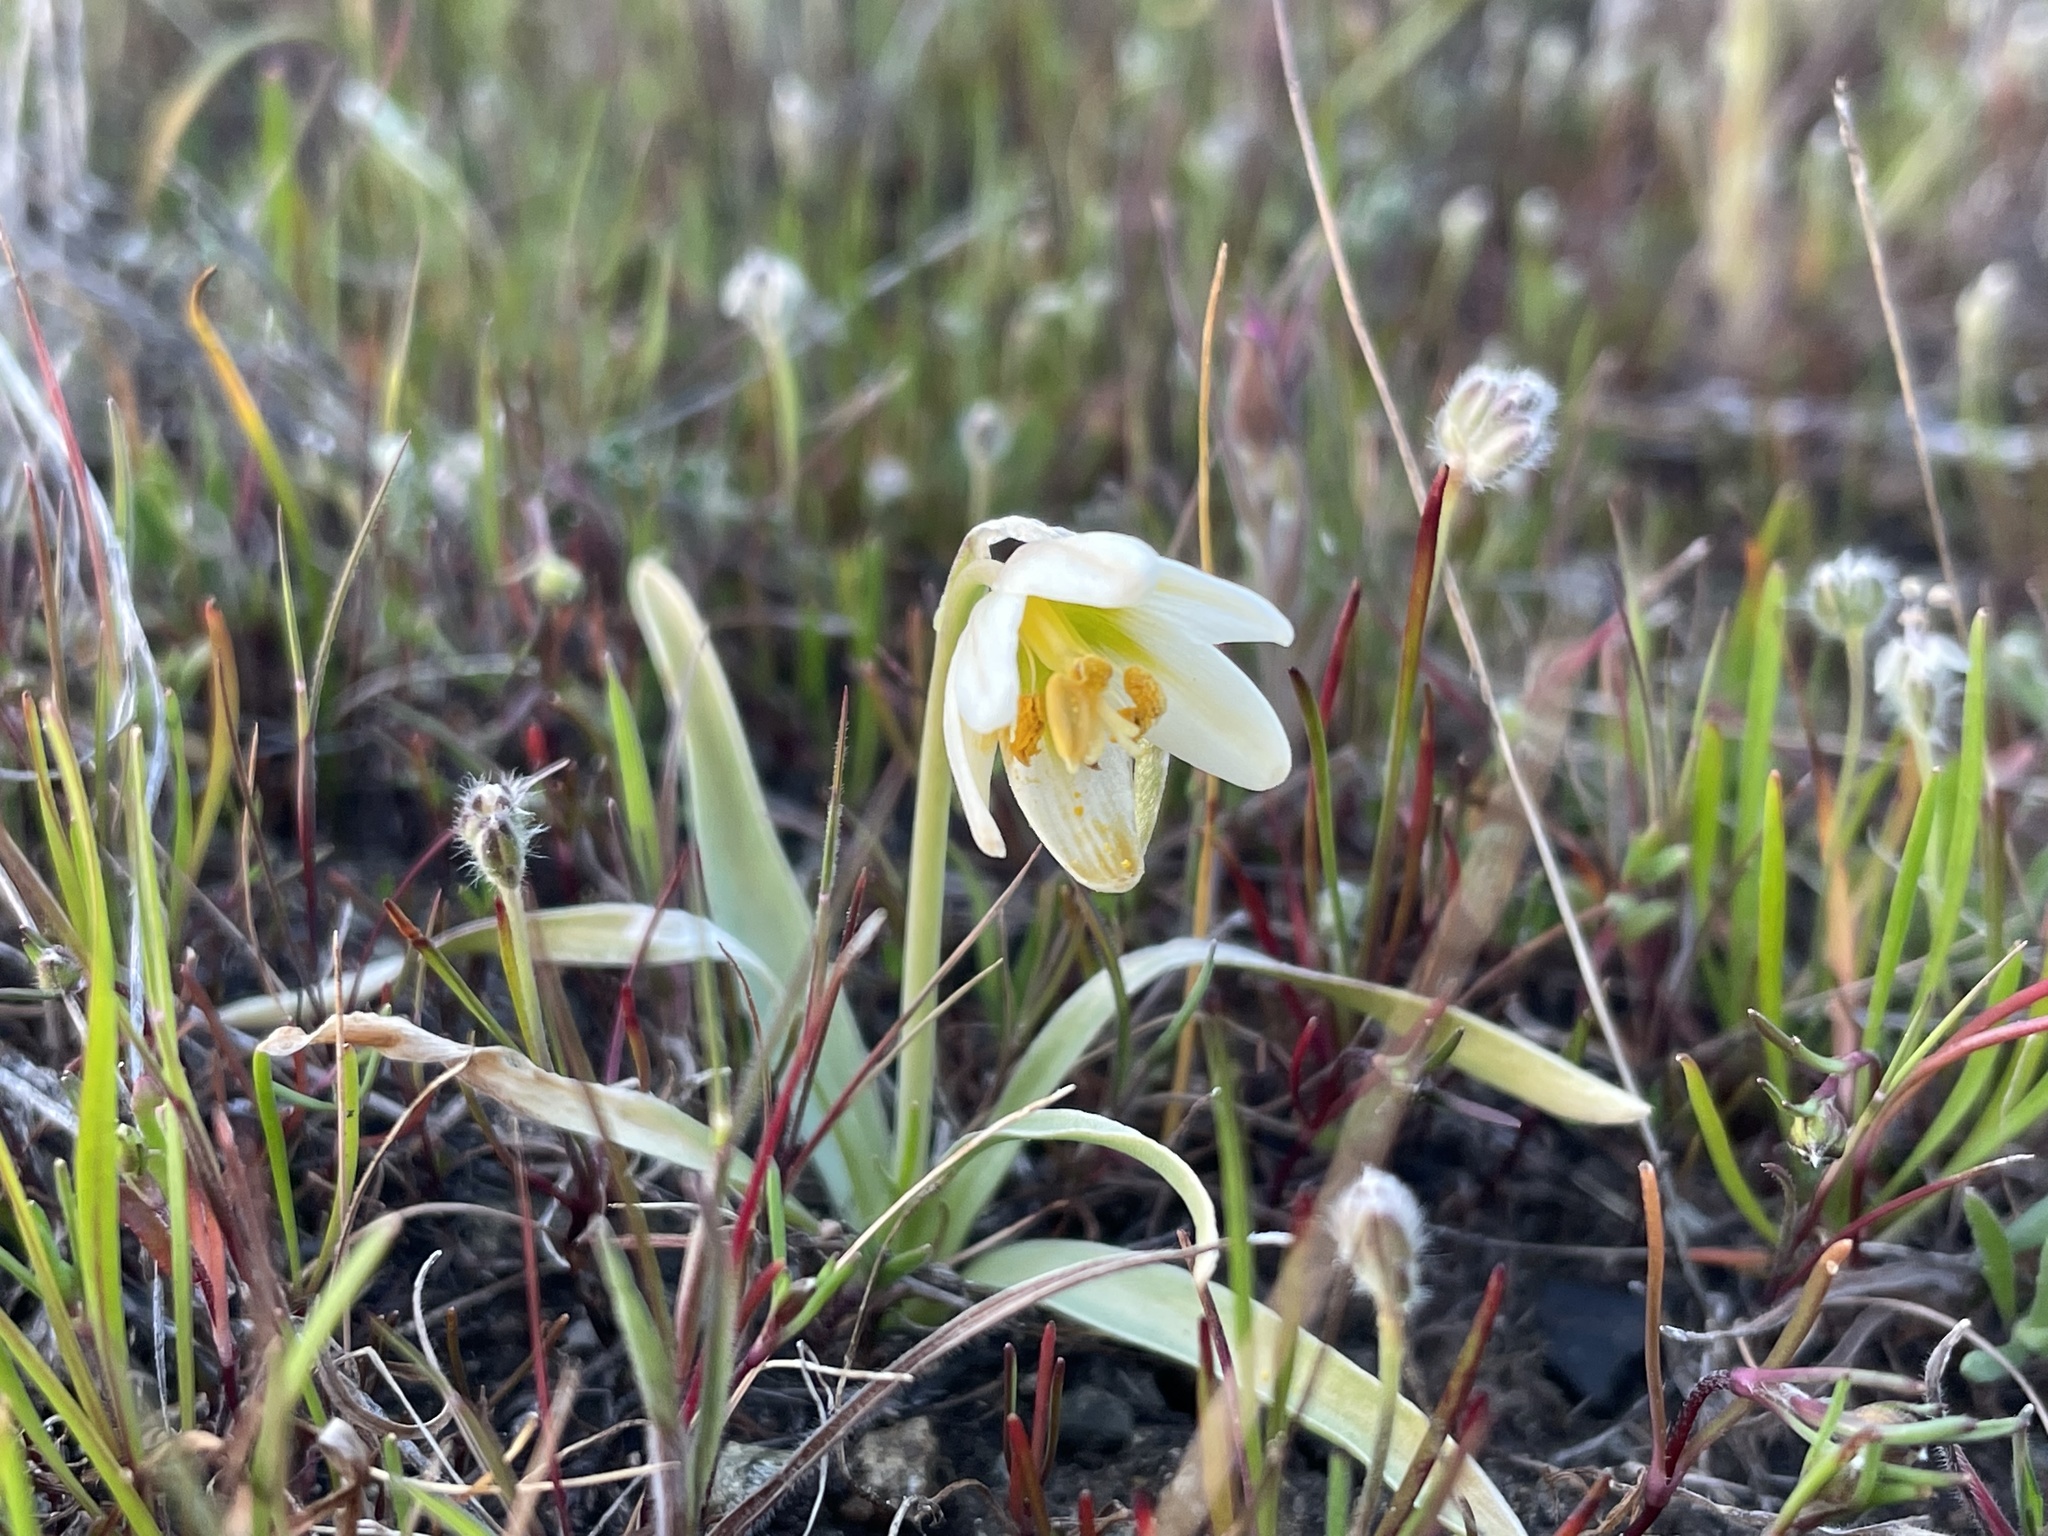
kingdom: Plantae
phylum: Tracheophyta
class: Liliopsida
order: Liliales
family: Liliaceae
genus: Fritillaria
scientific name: Fritillaria liliacea
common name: Fragrant fritillary
